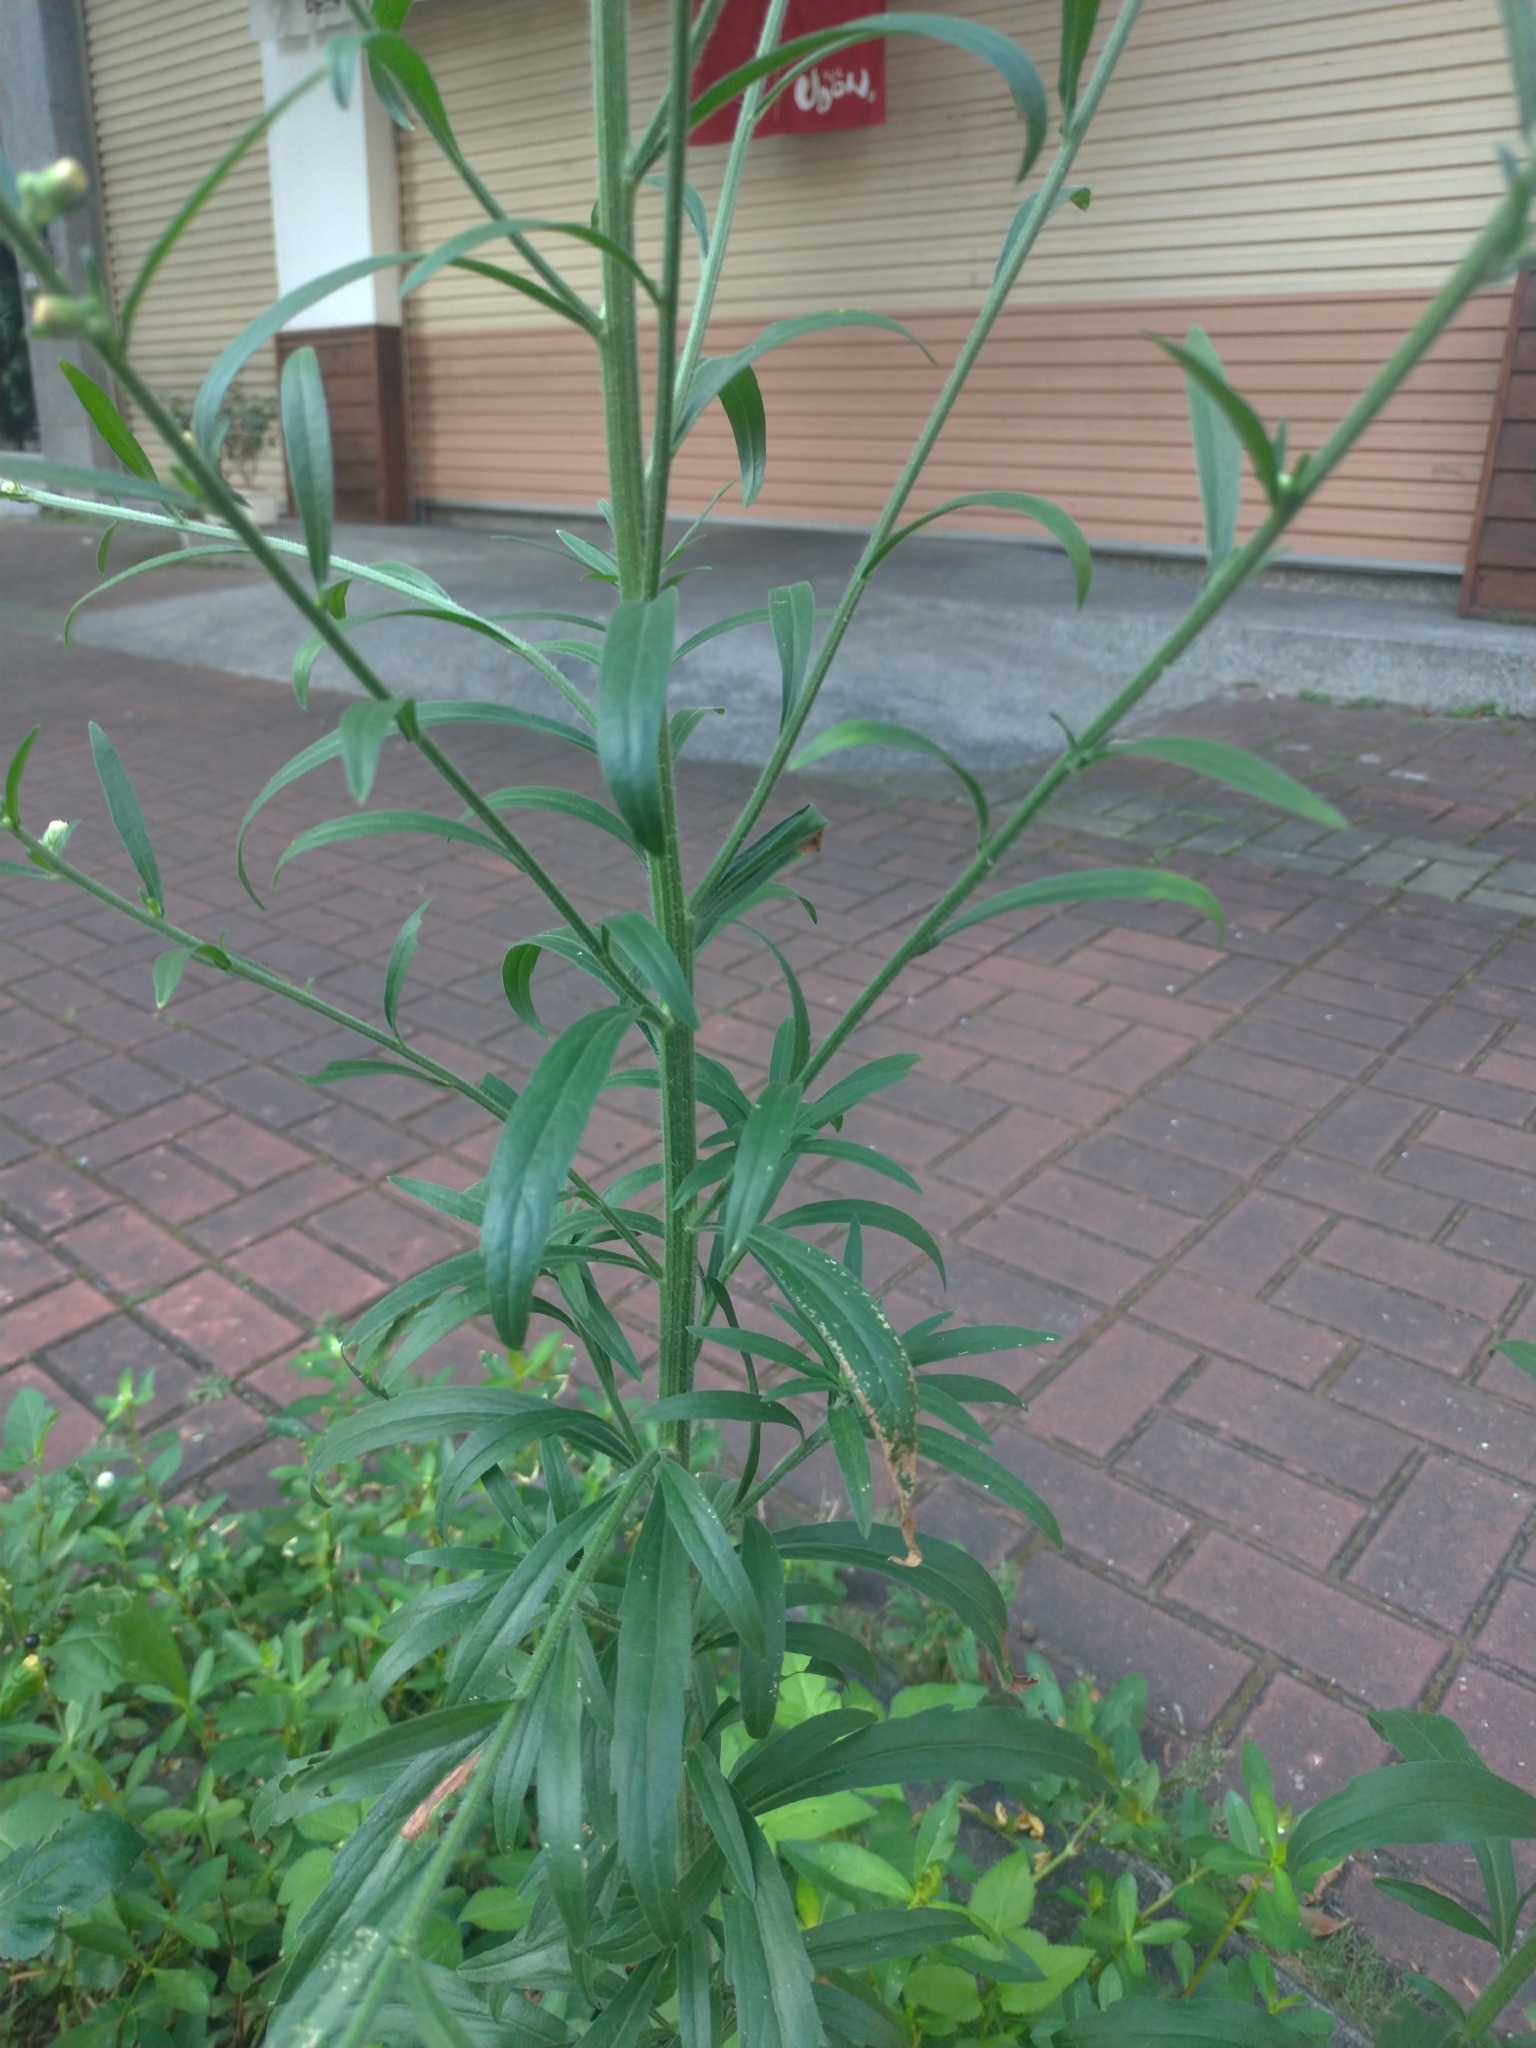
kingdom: Plantae
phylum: Tracheophyta
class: Magnoliopsida
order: Asterales
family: Asteraceae
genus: Erigeron
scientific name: Erigeron sumatrensis
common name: Daisy
